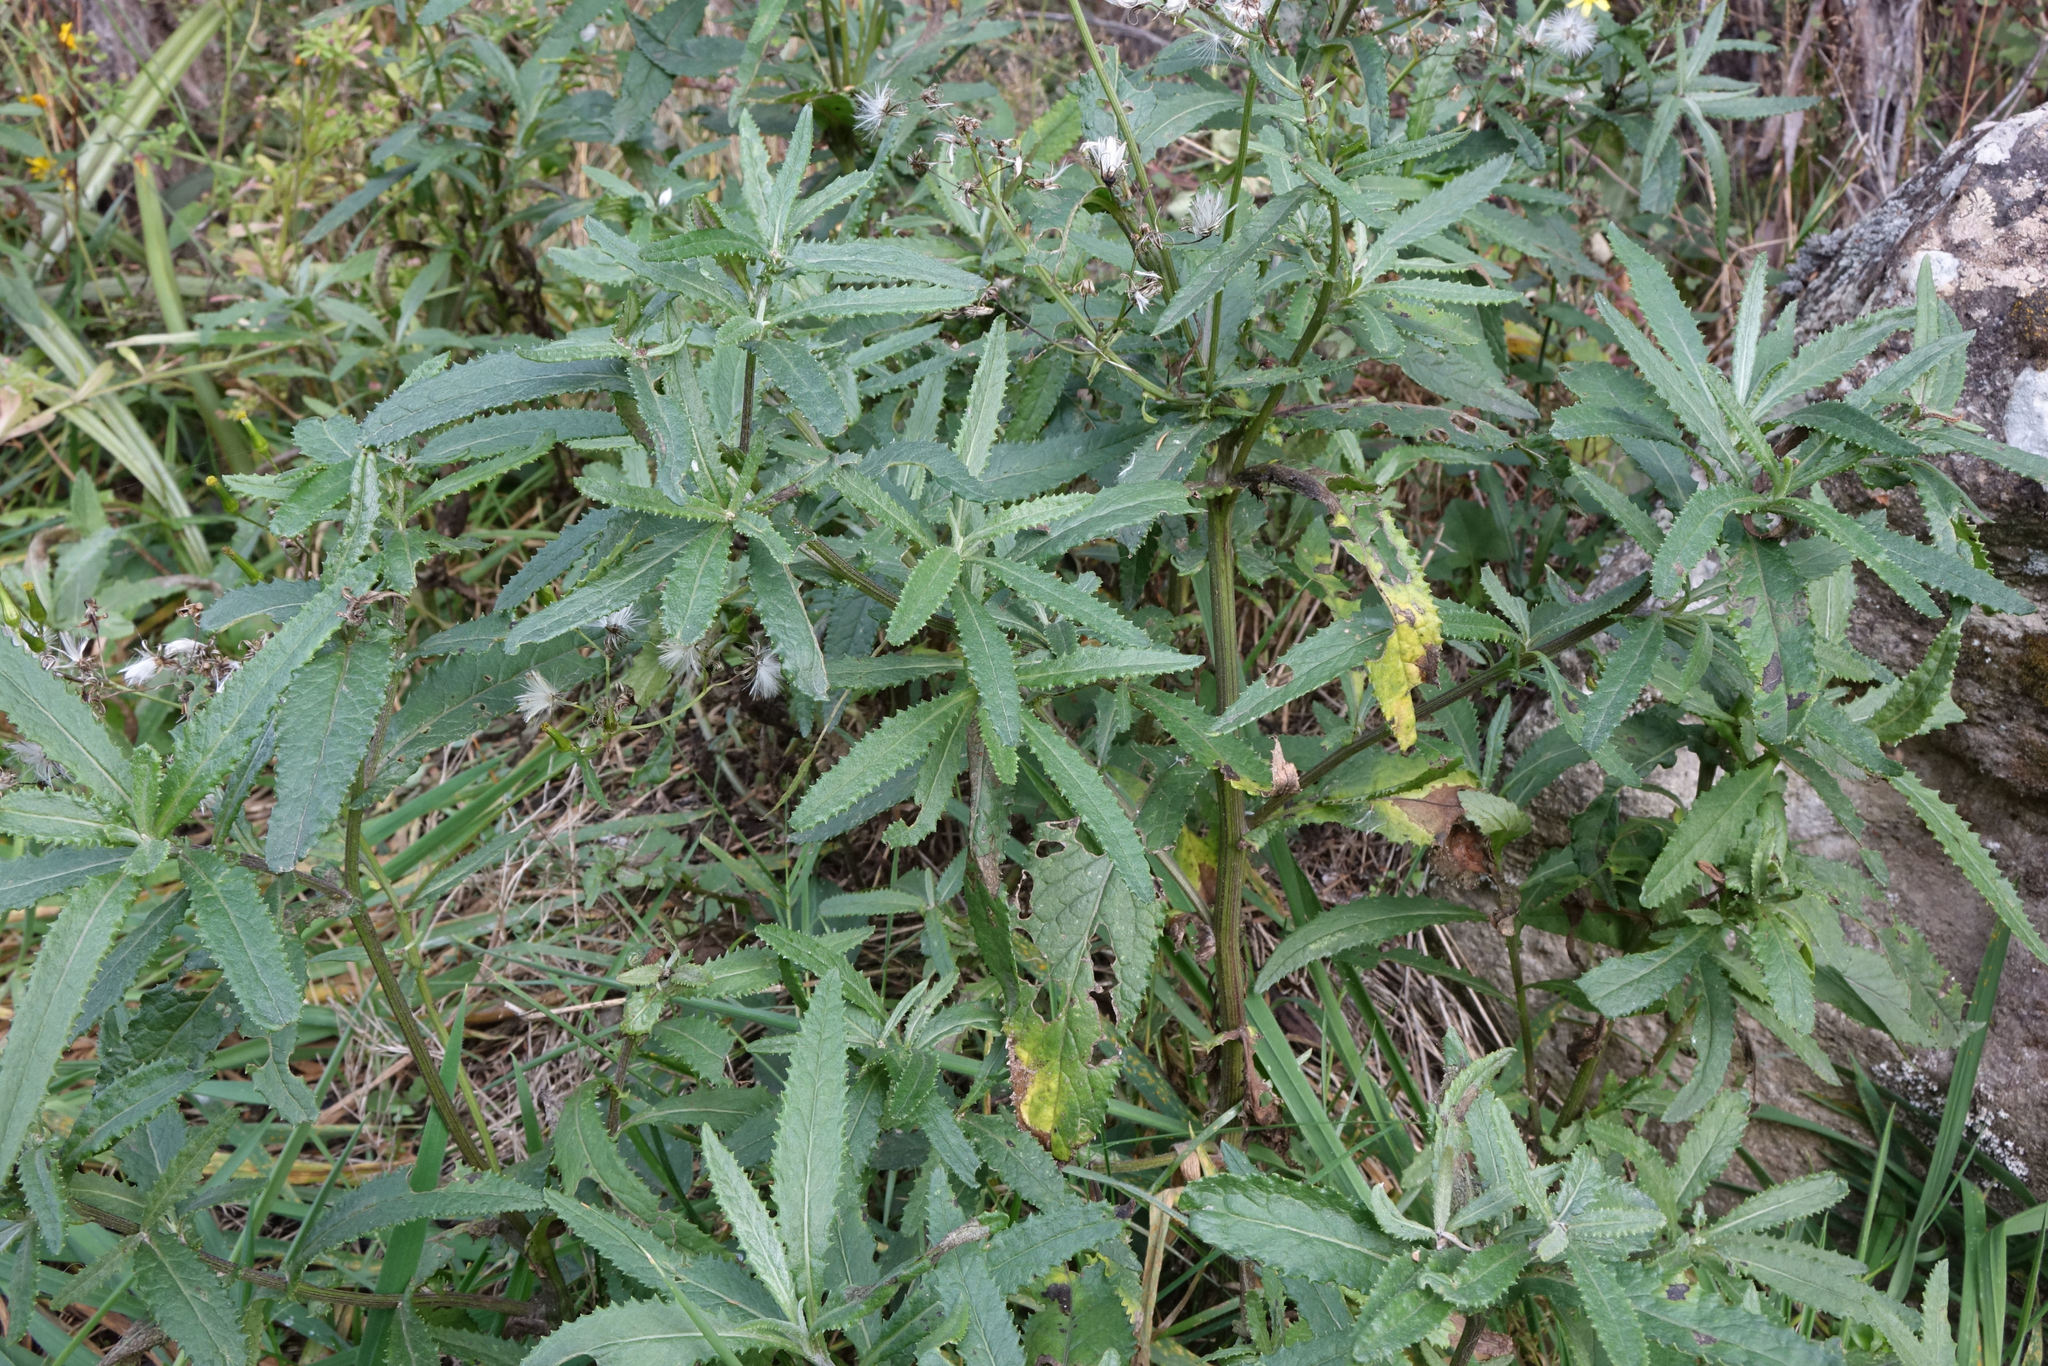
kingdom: Plantae
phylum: Tracheophyta
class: Magnoliopsida
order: Asterales
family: Asteraceae
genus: Senecio
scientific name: Senecio minimus
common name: Toothed fireweed
